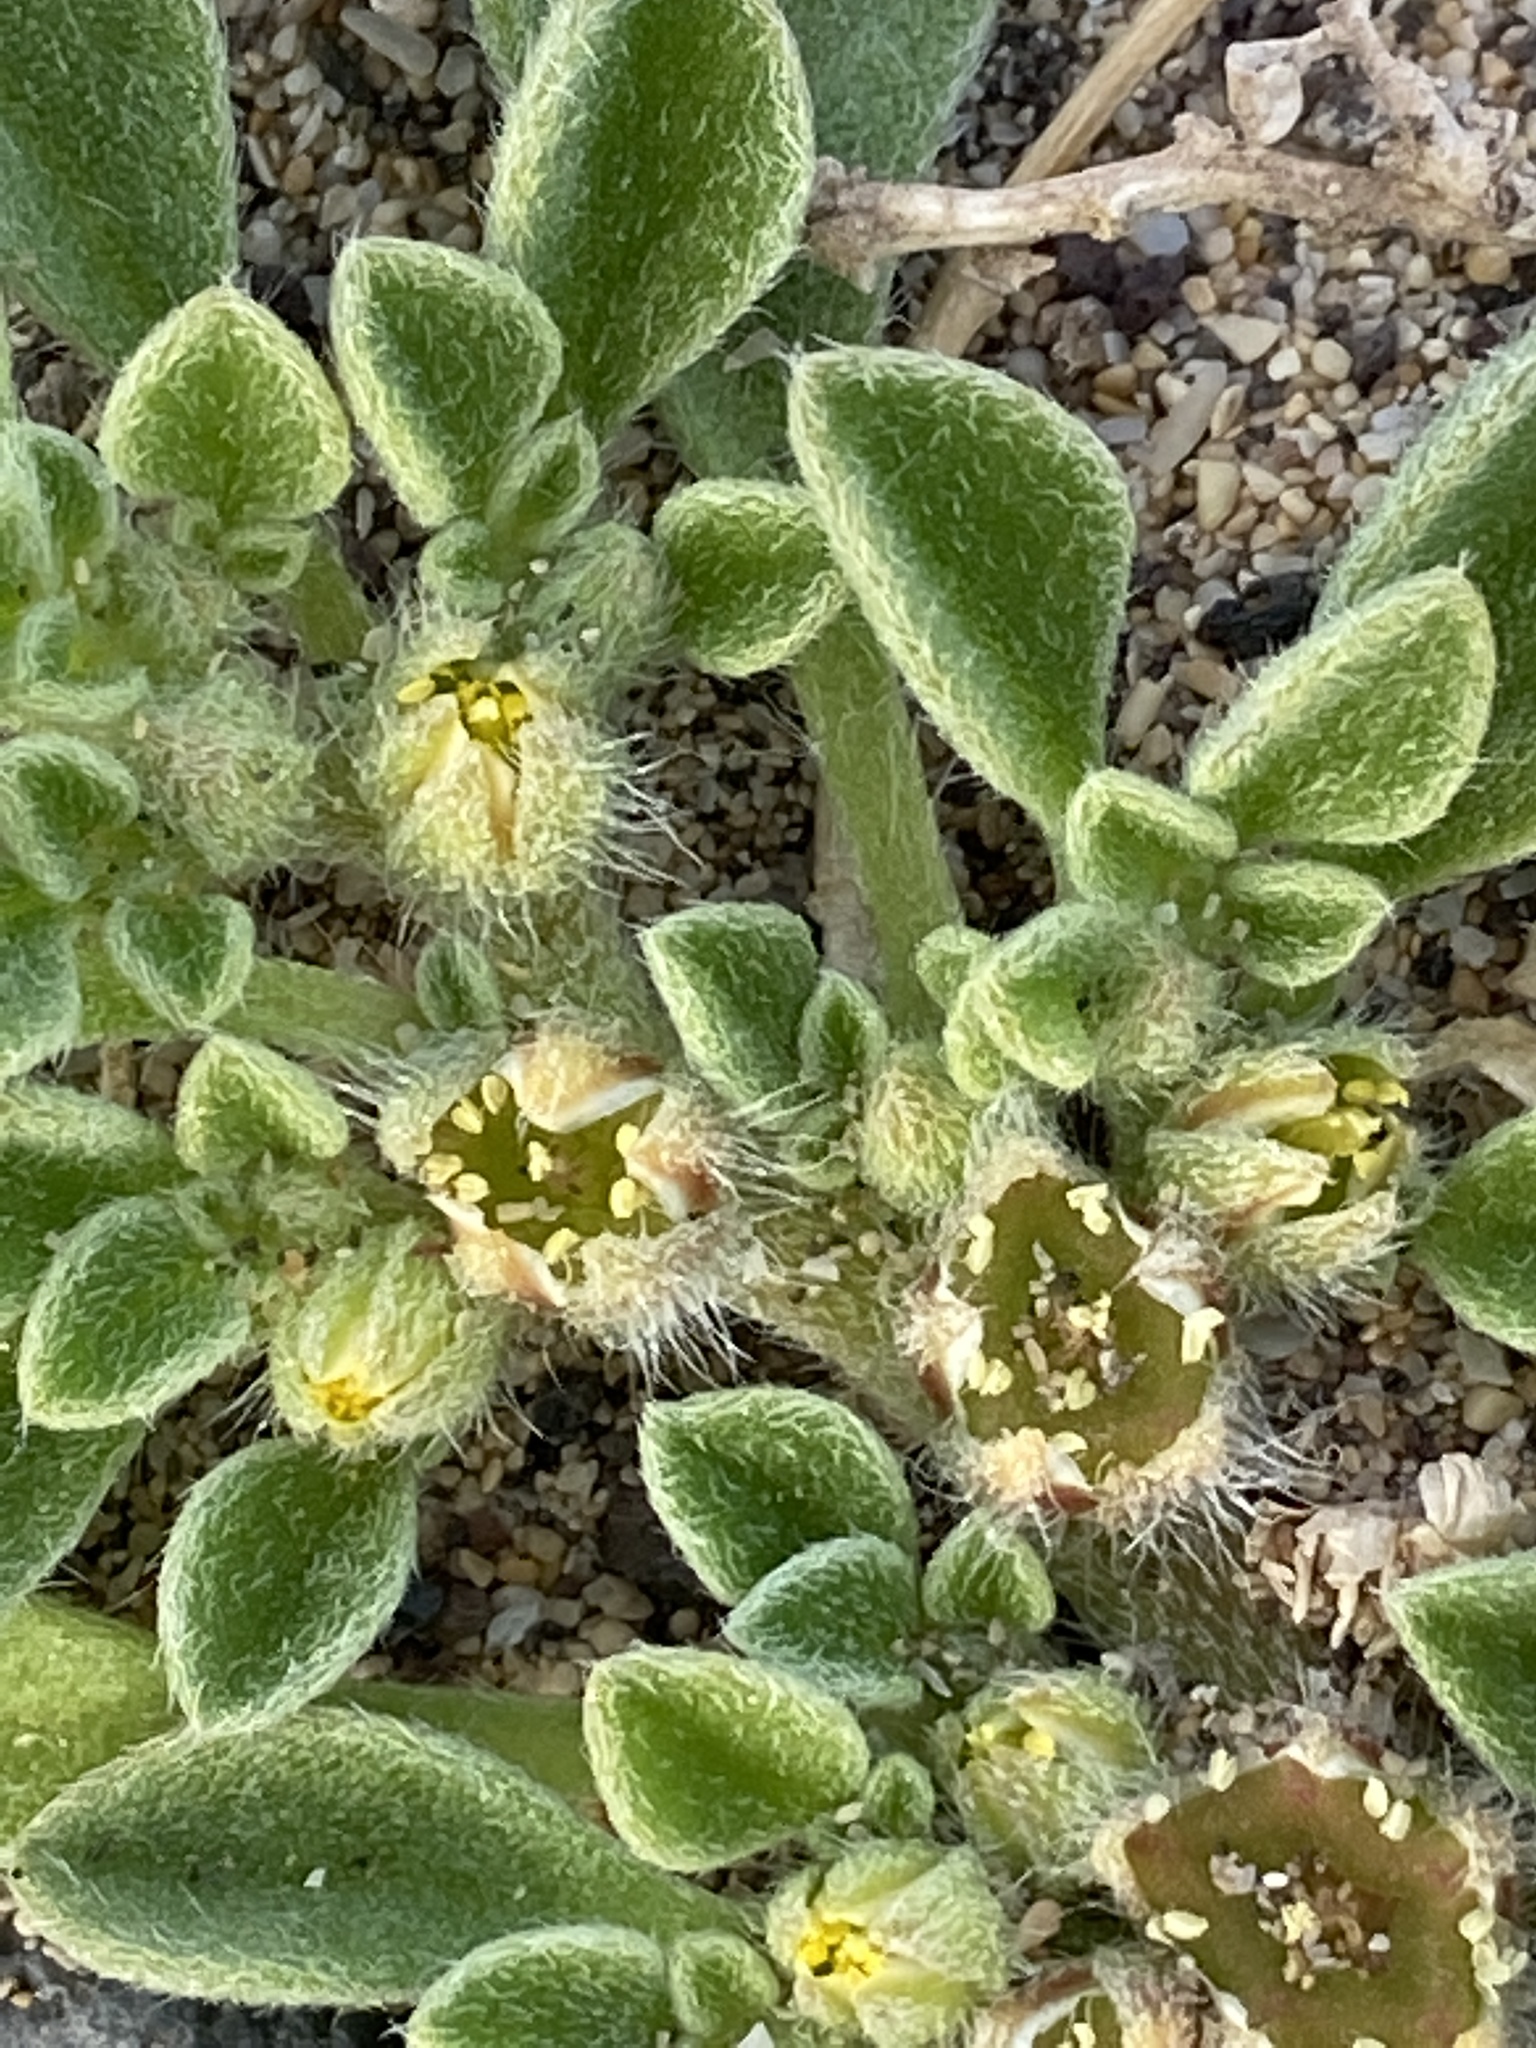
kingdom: Plantae
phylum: Tracheophyta
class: Magnoliopsida
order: Caryophyllales
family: Aizoaceae
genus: Aizoon
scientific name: Aizoon canariense
